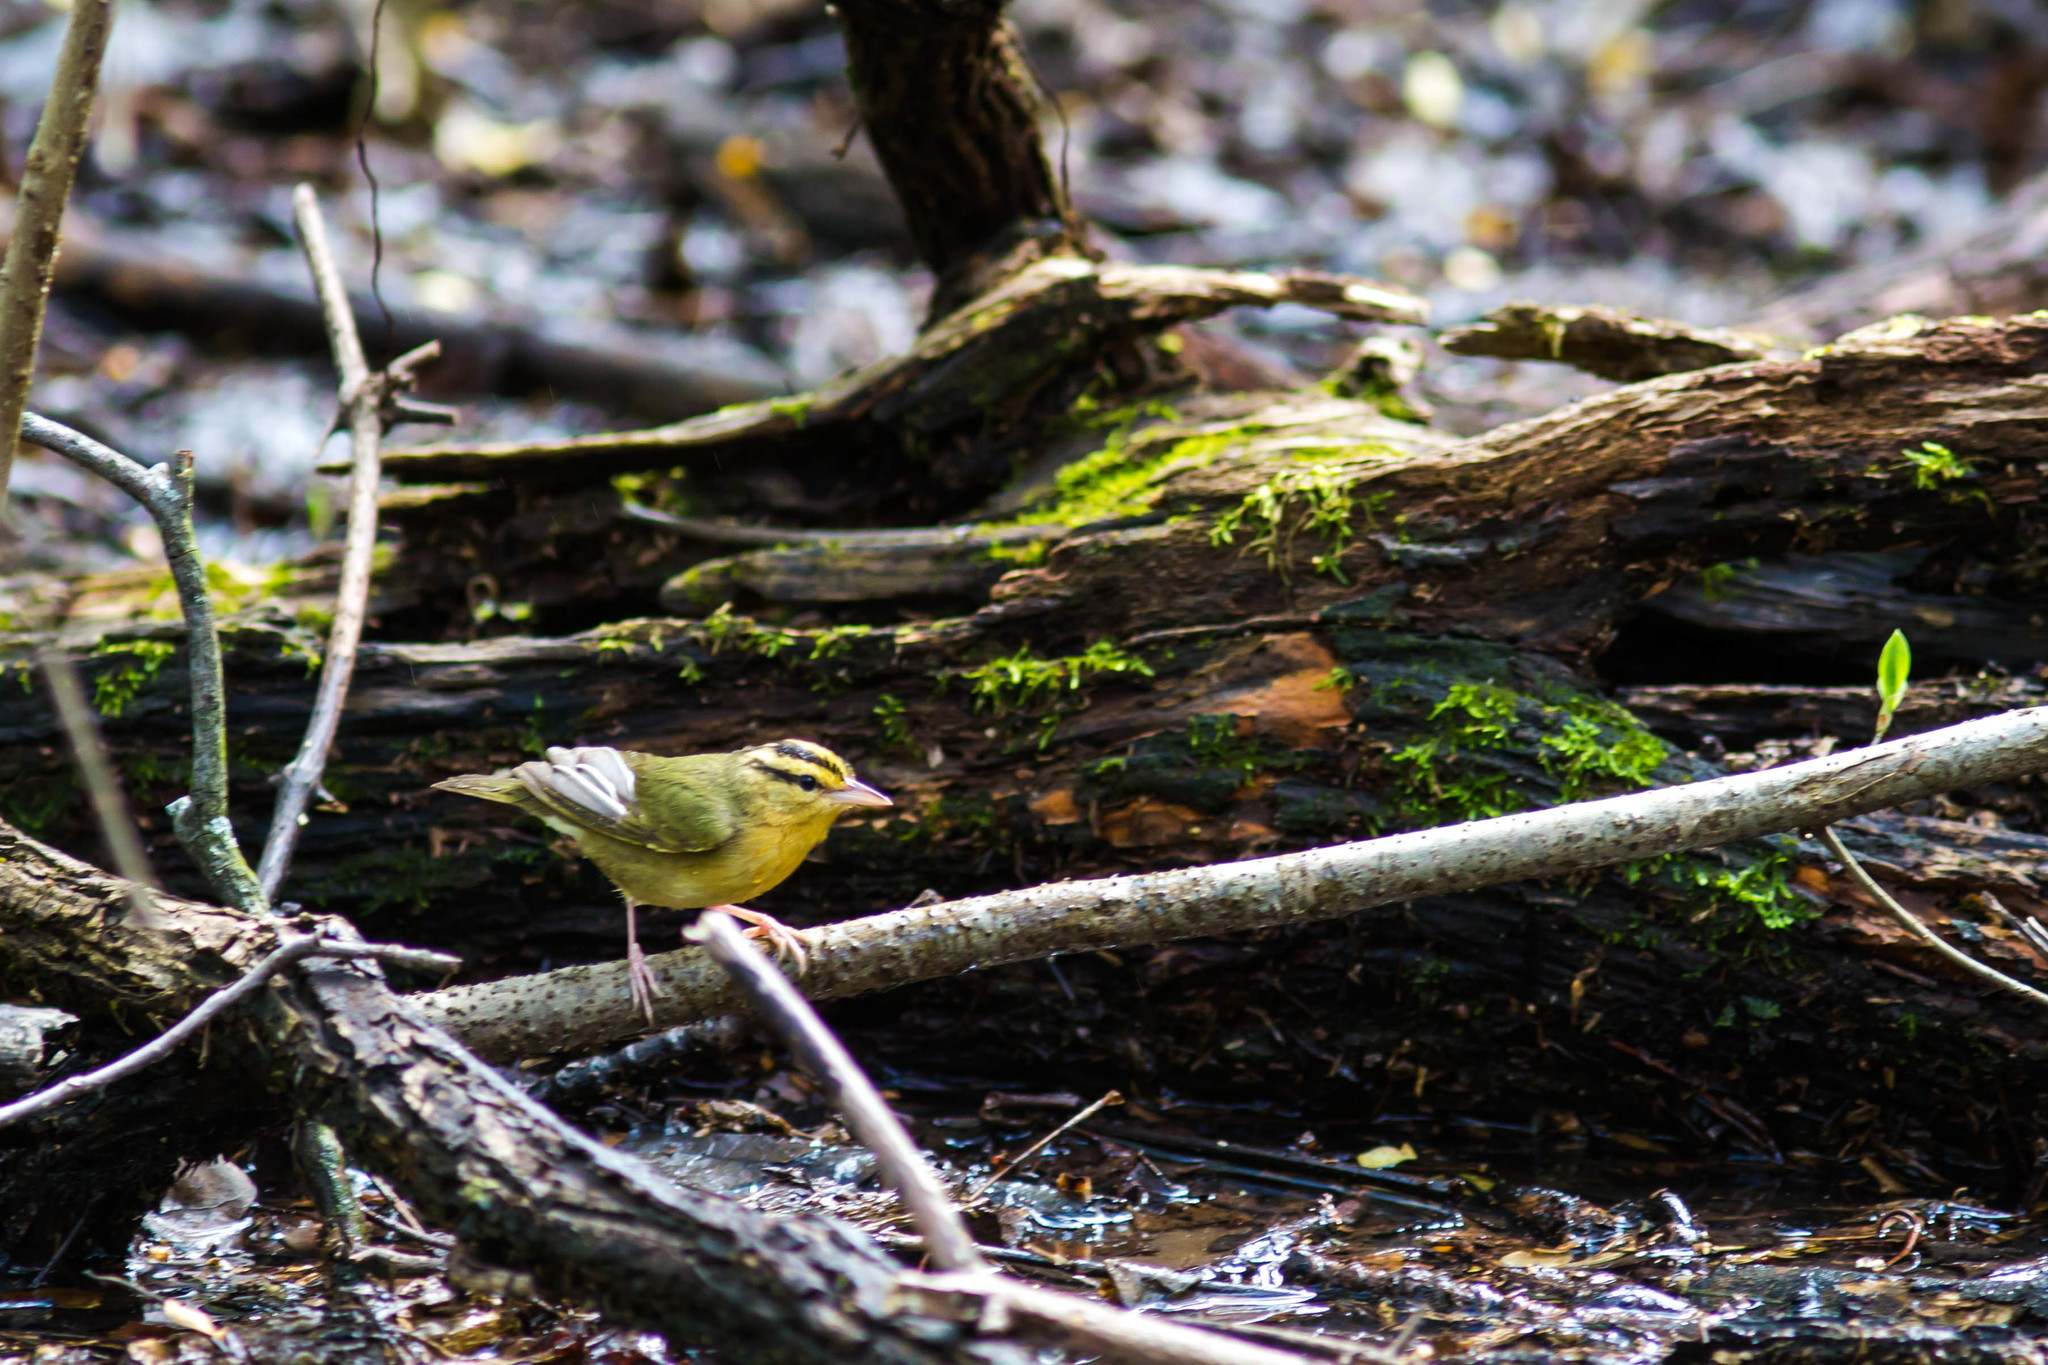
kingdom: Animalia
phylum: Chordata
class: Aves
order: Passeriformes
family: Parulidae
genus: Helmitheros
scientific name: Helmitheros vermivorum
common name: Worm-eating warbler
